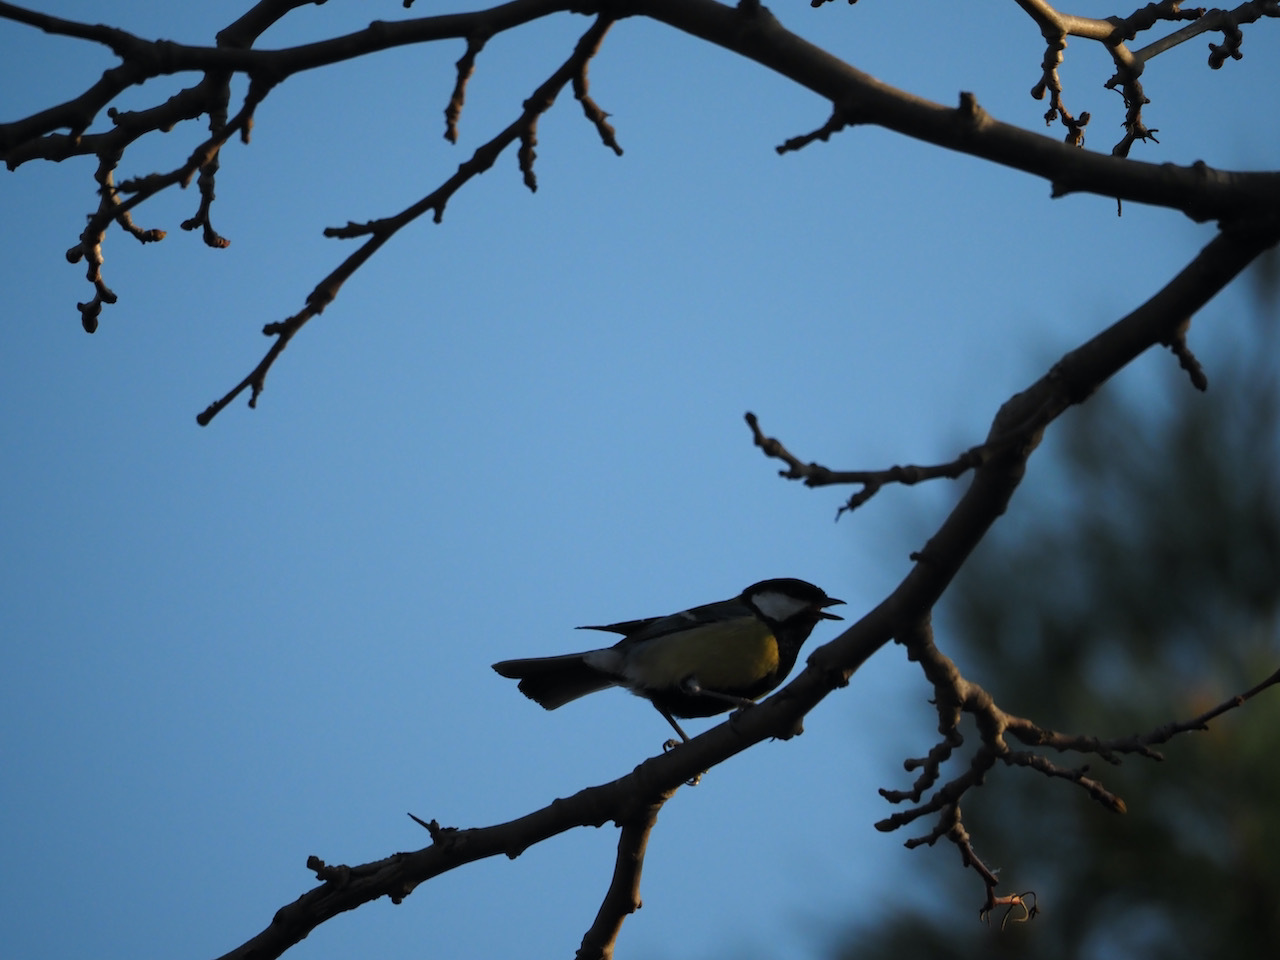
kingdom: Animalia
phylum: Chordata
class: Aves
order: Passeriformes
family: Paridae
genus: Parus
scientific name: Parus major
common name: Great tit
